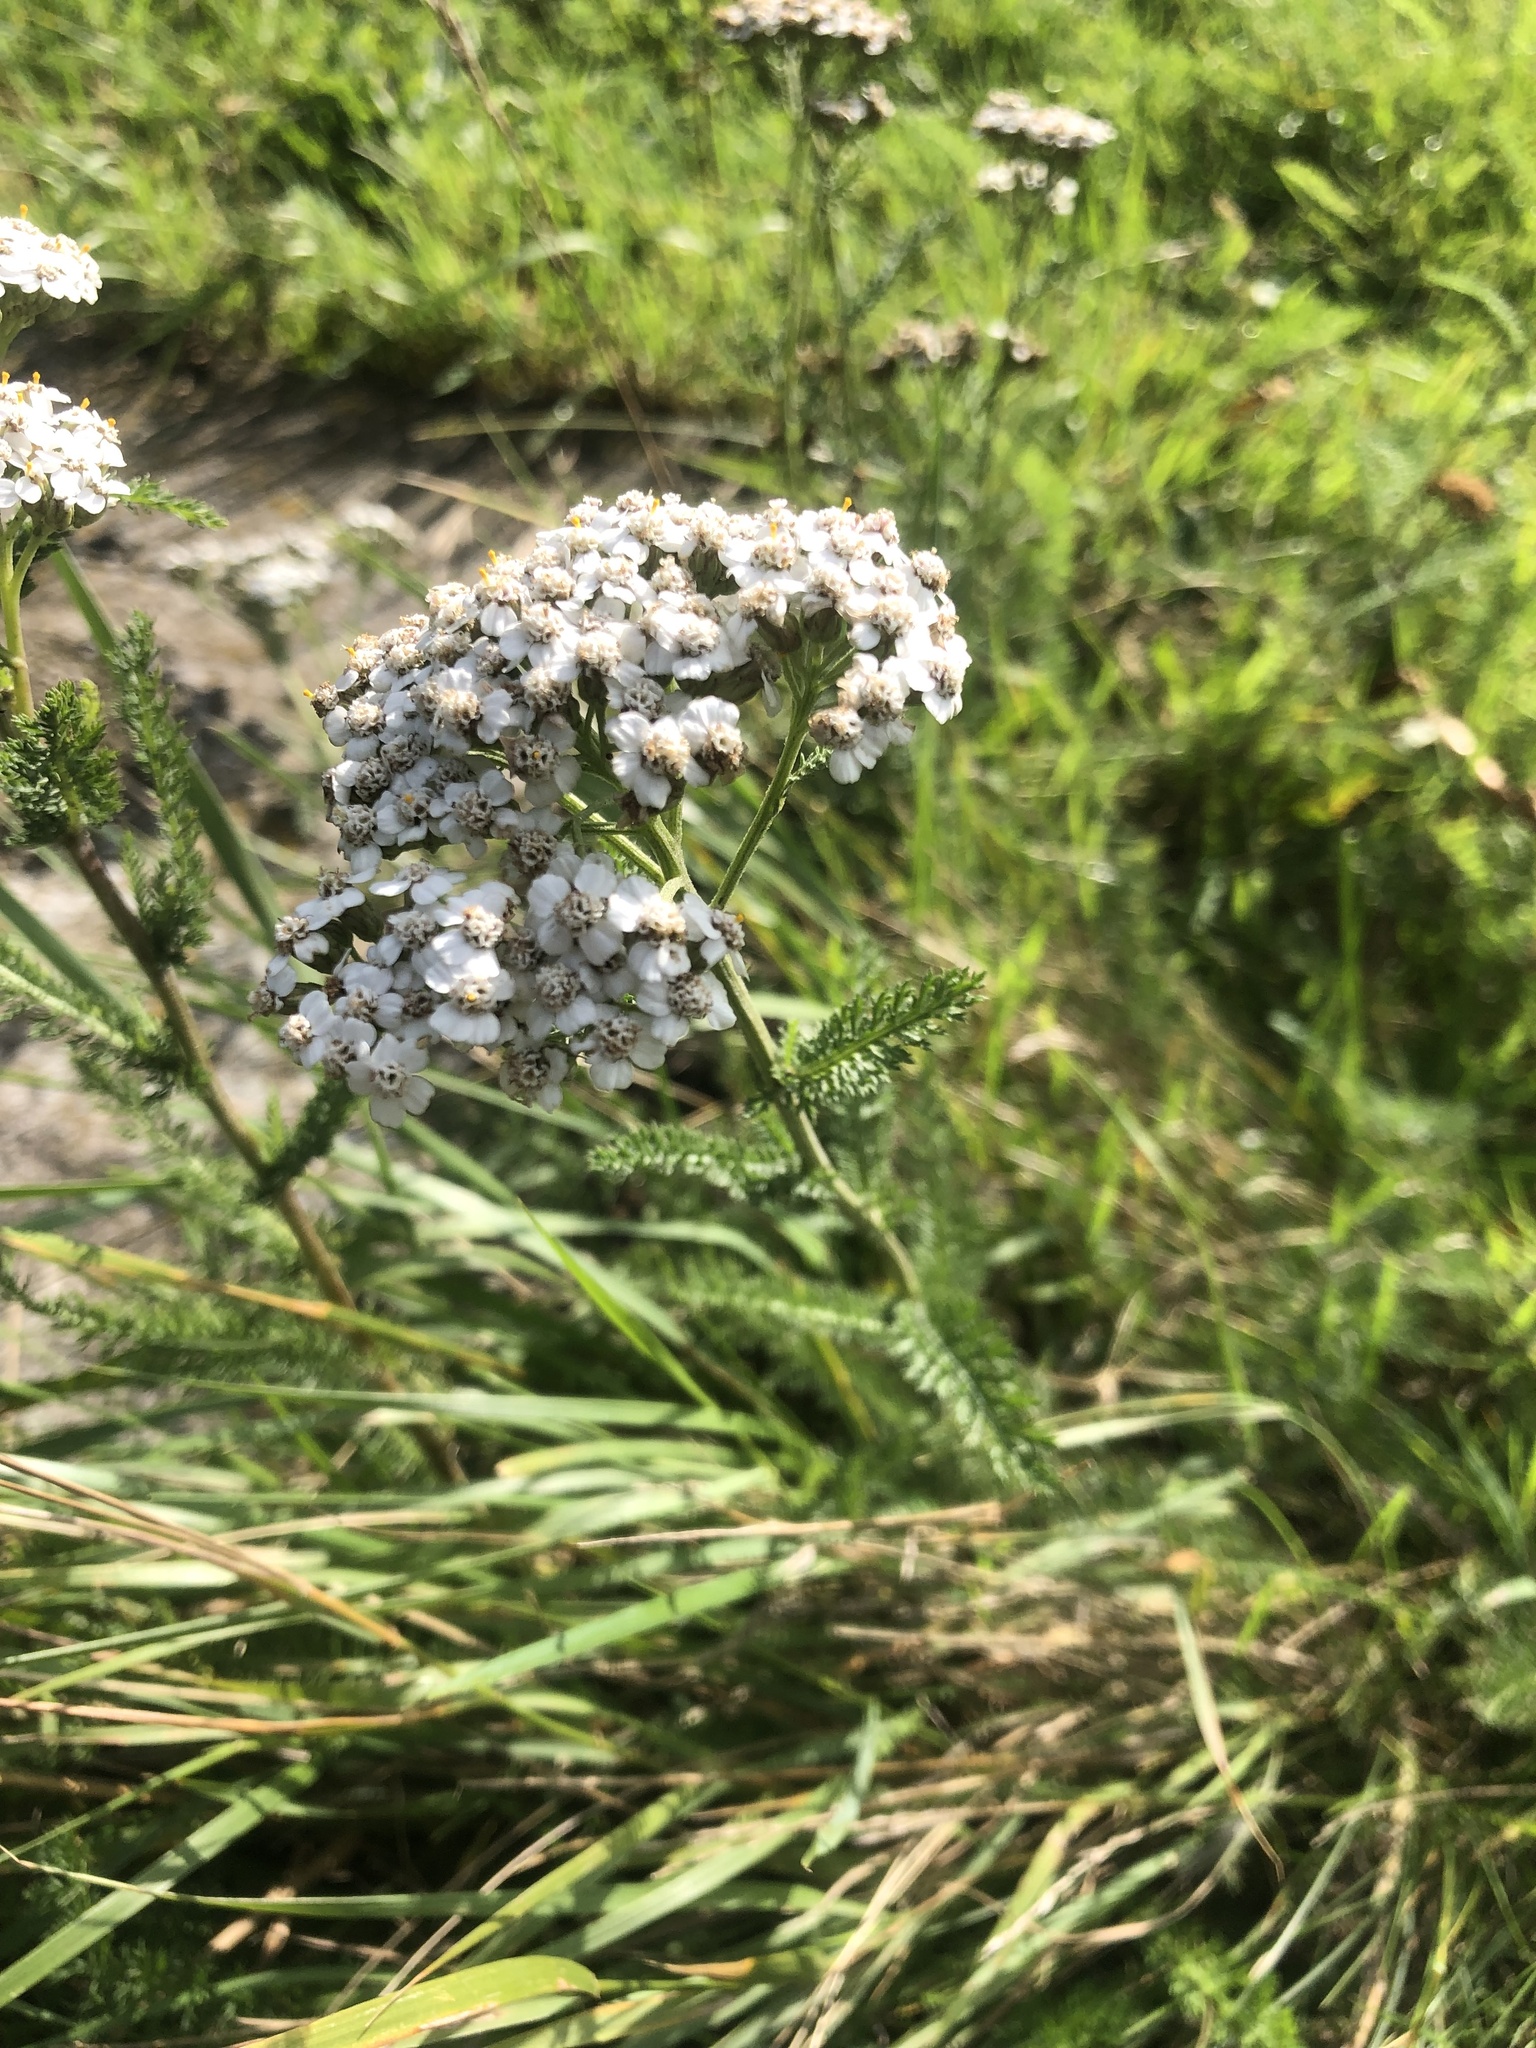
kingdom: Plantae
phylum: Tracheophyta
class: Magnoliopsida
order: Asterales
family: Asteraceae
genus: Achillea
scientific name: Achillea millefolium
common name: Yarrow
